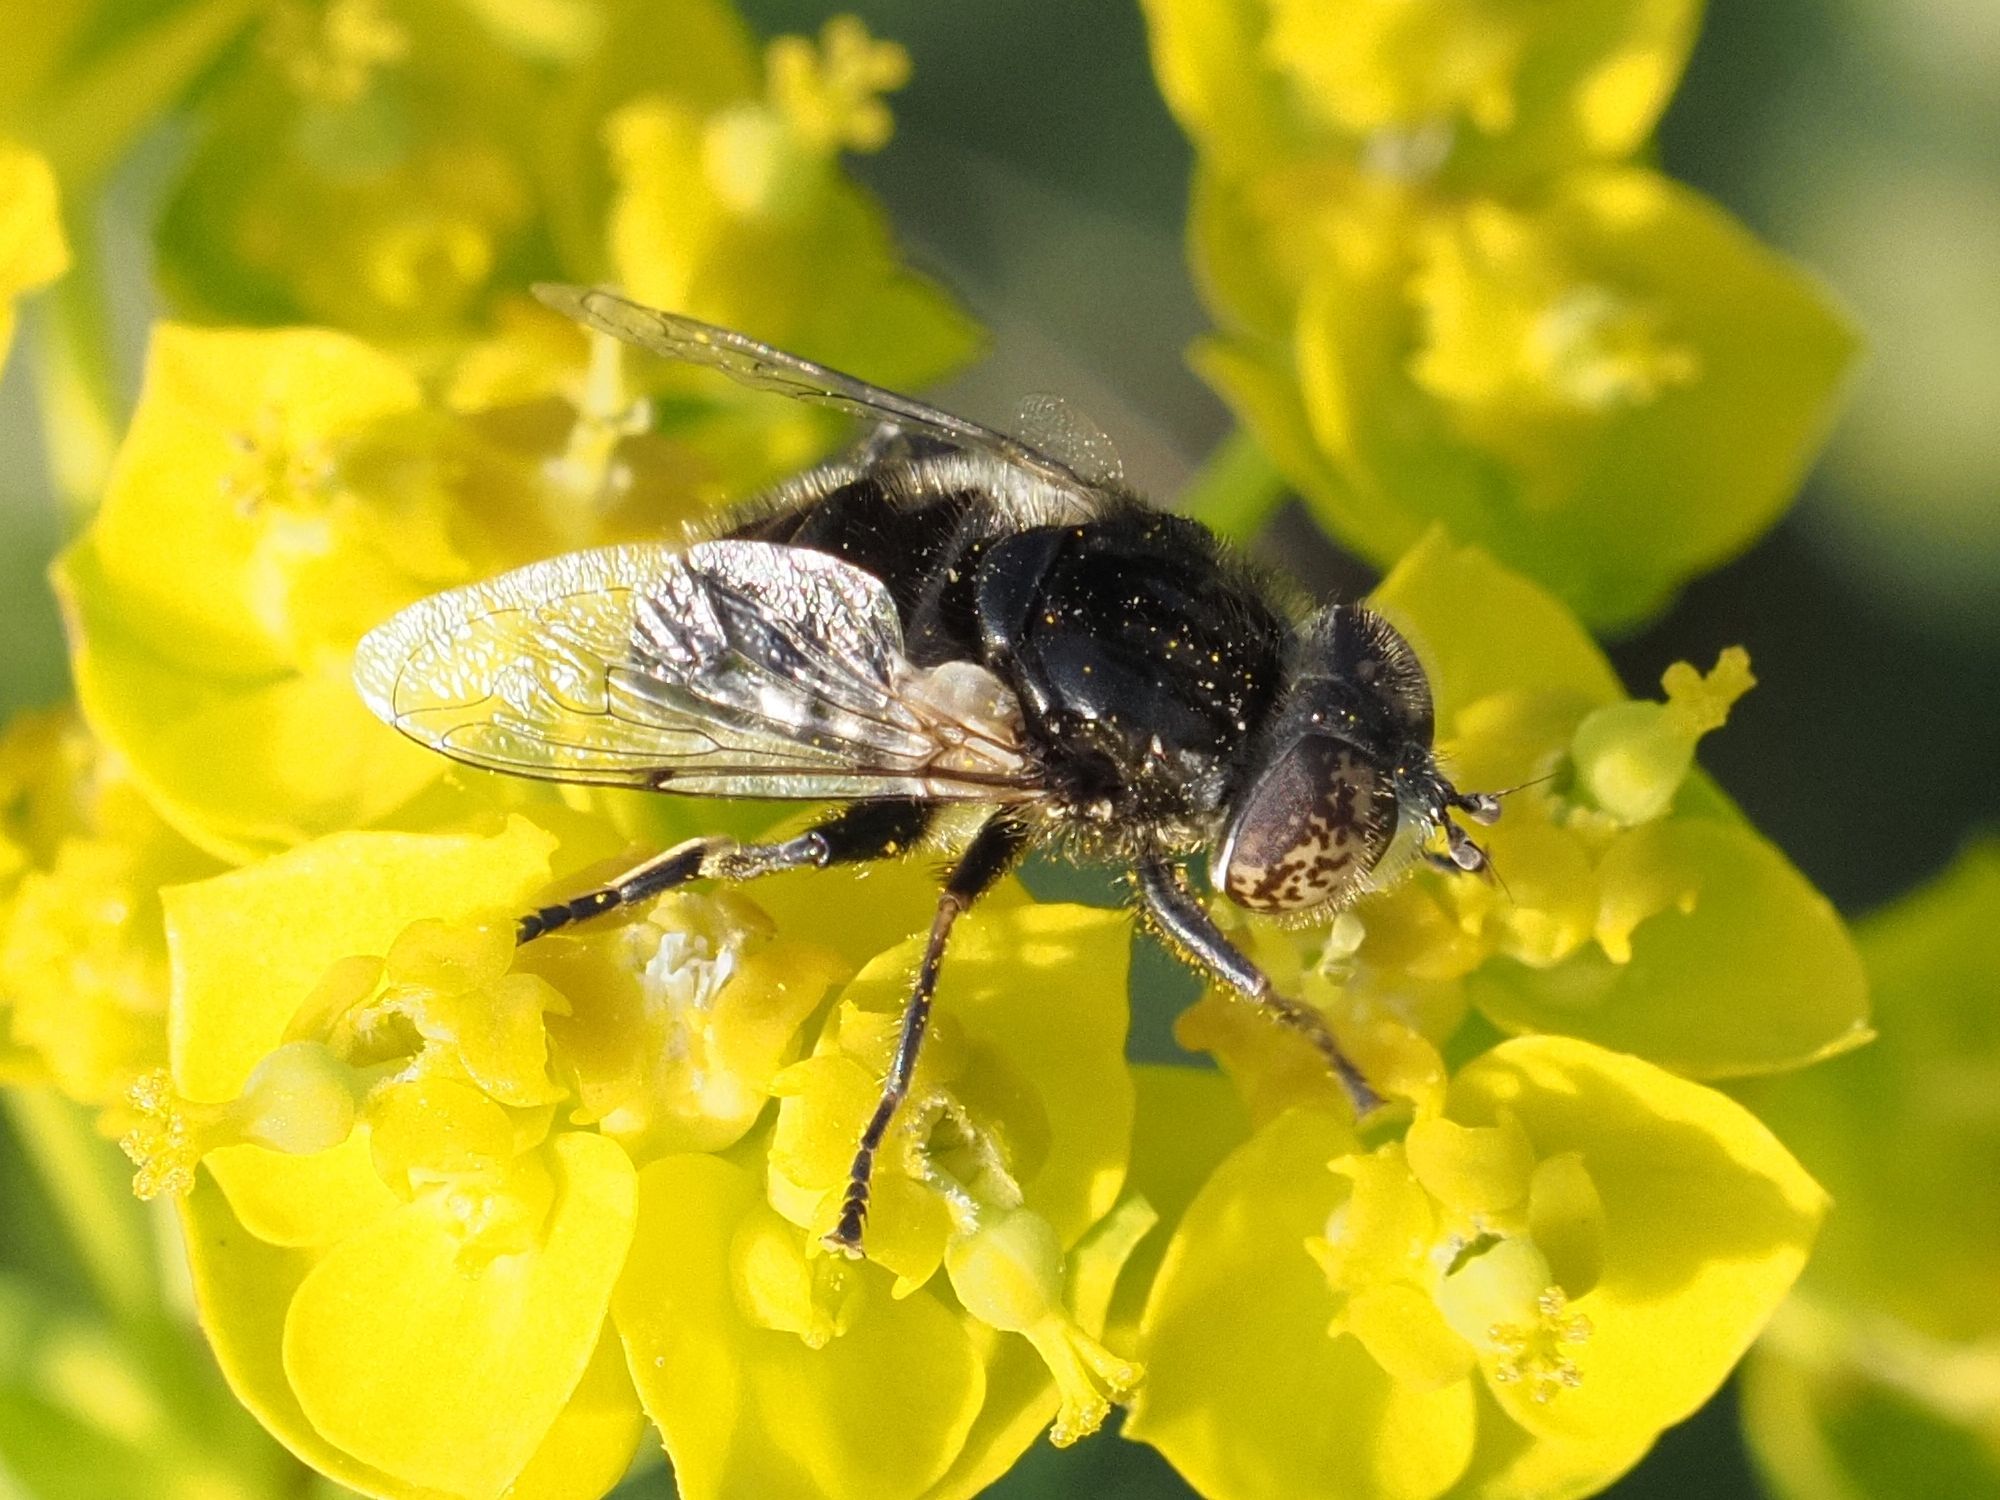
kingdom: Animalia
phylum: Arthropoda
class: Insecta
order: Diptera
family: Syrphidae
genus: Eristalinus
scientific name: Eristalinus sepulchralis
